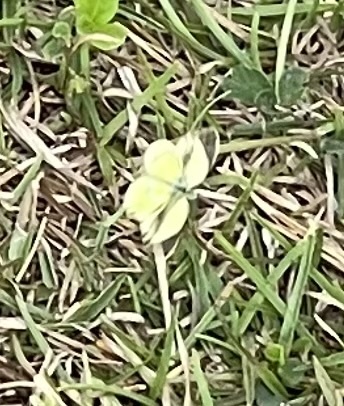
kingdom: Animalia
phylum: Arthropoda
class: Insecta
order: Lepidoptera
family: Pieridae
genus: Nathalis
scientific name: Nathalis iole
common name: Dainty sulphur
